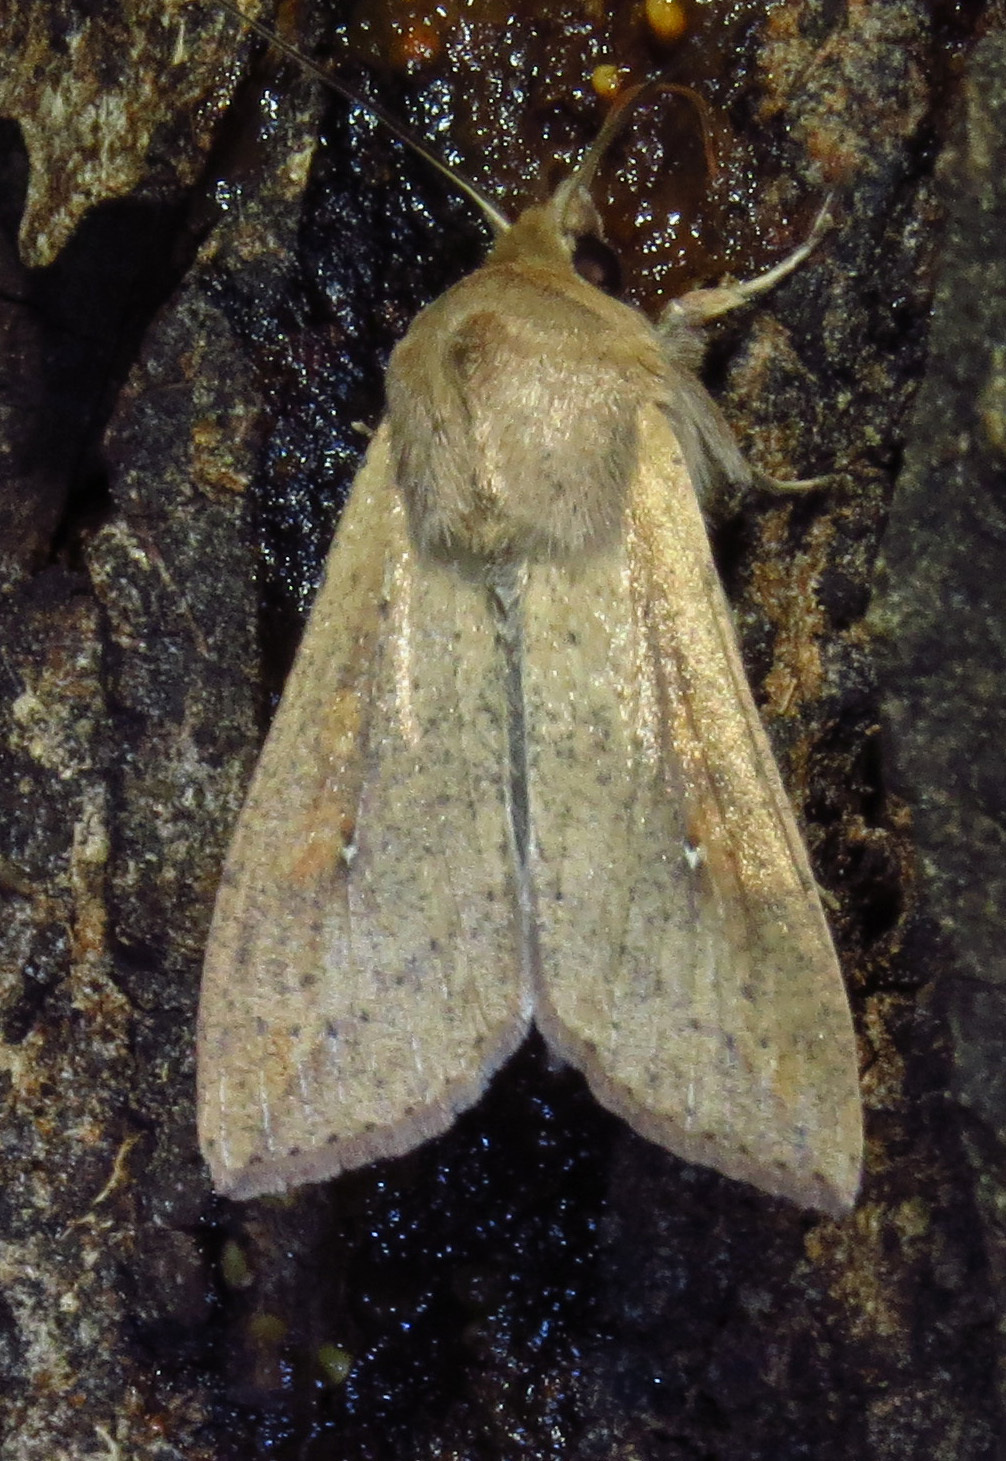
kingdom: Animalia
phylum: Arthropoda
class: Insecta
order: Lepidoptera
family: Noctuidae
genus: Mythimna
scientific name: Mythimna unipuncta
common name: White-speck
